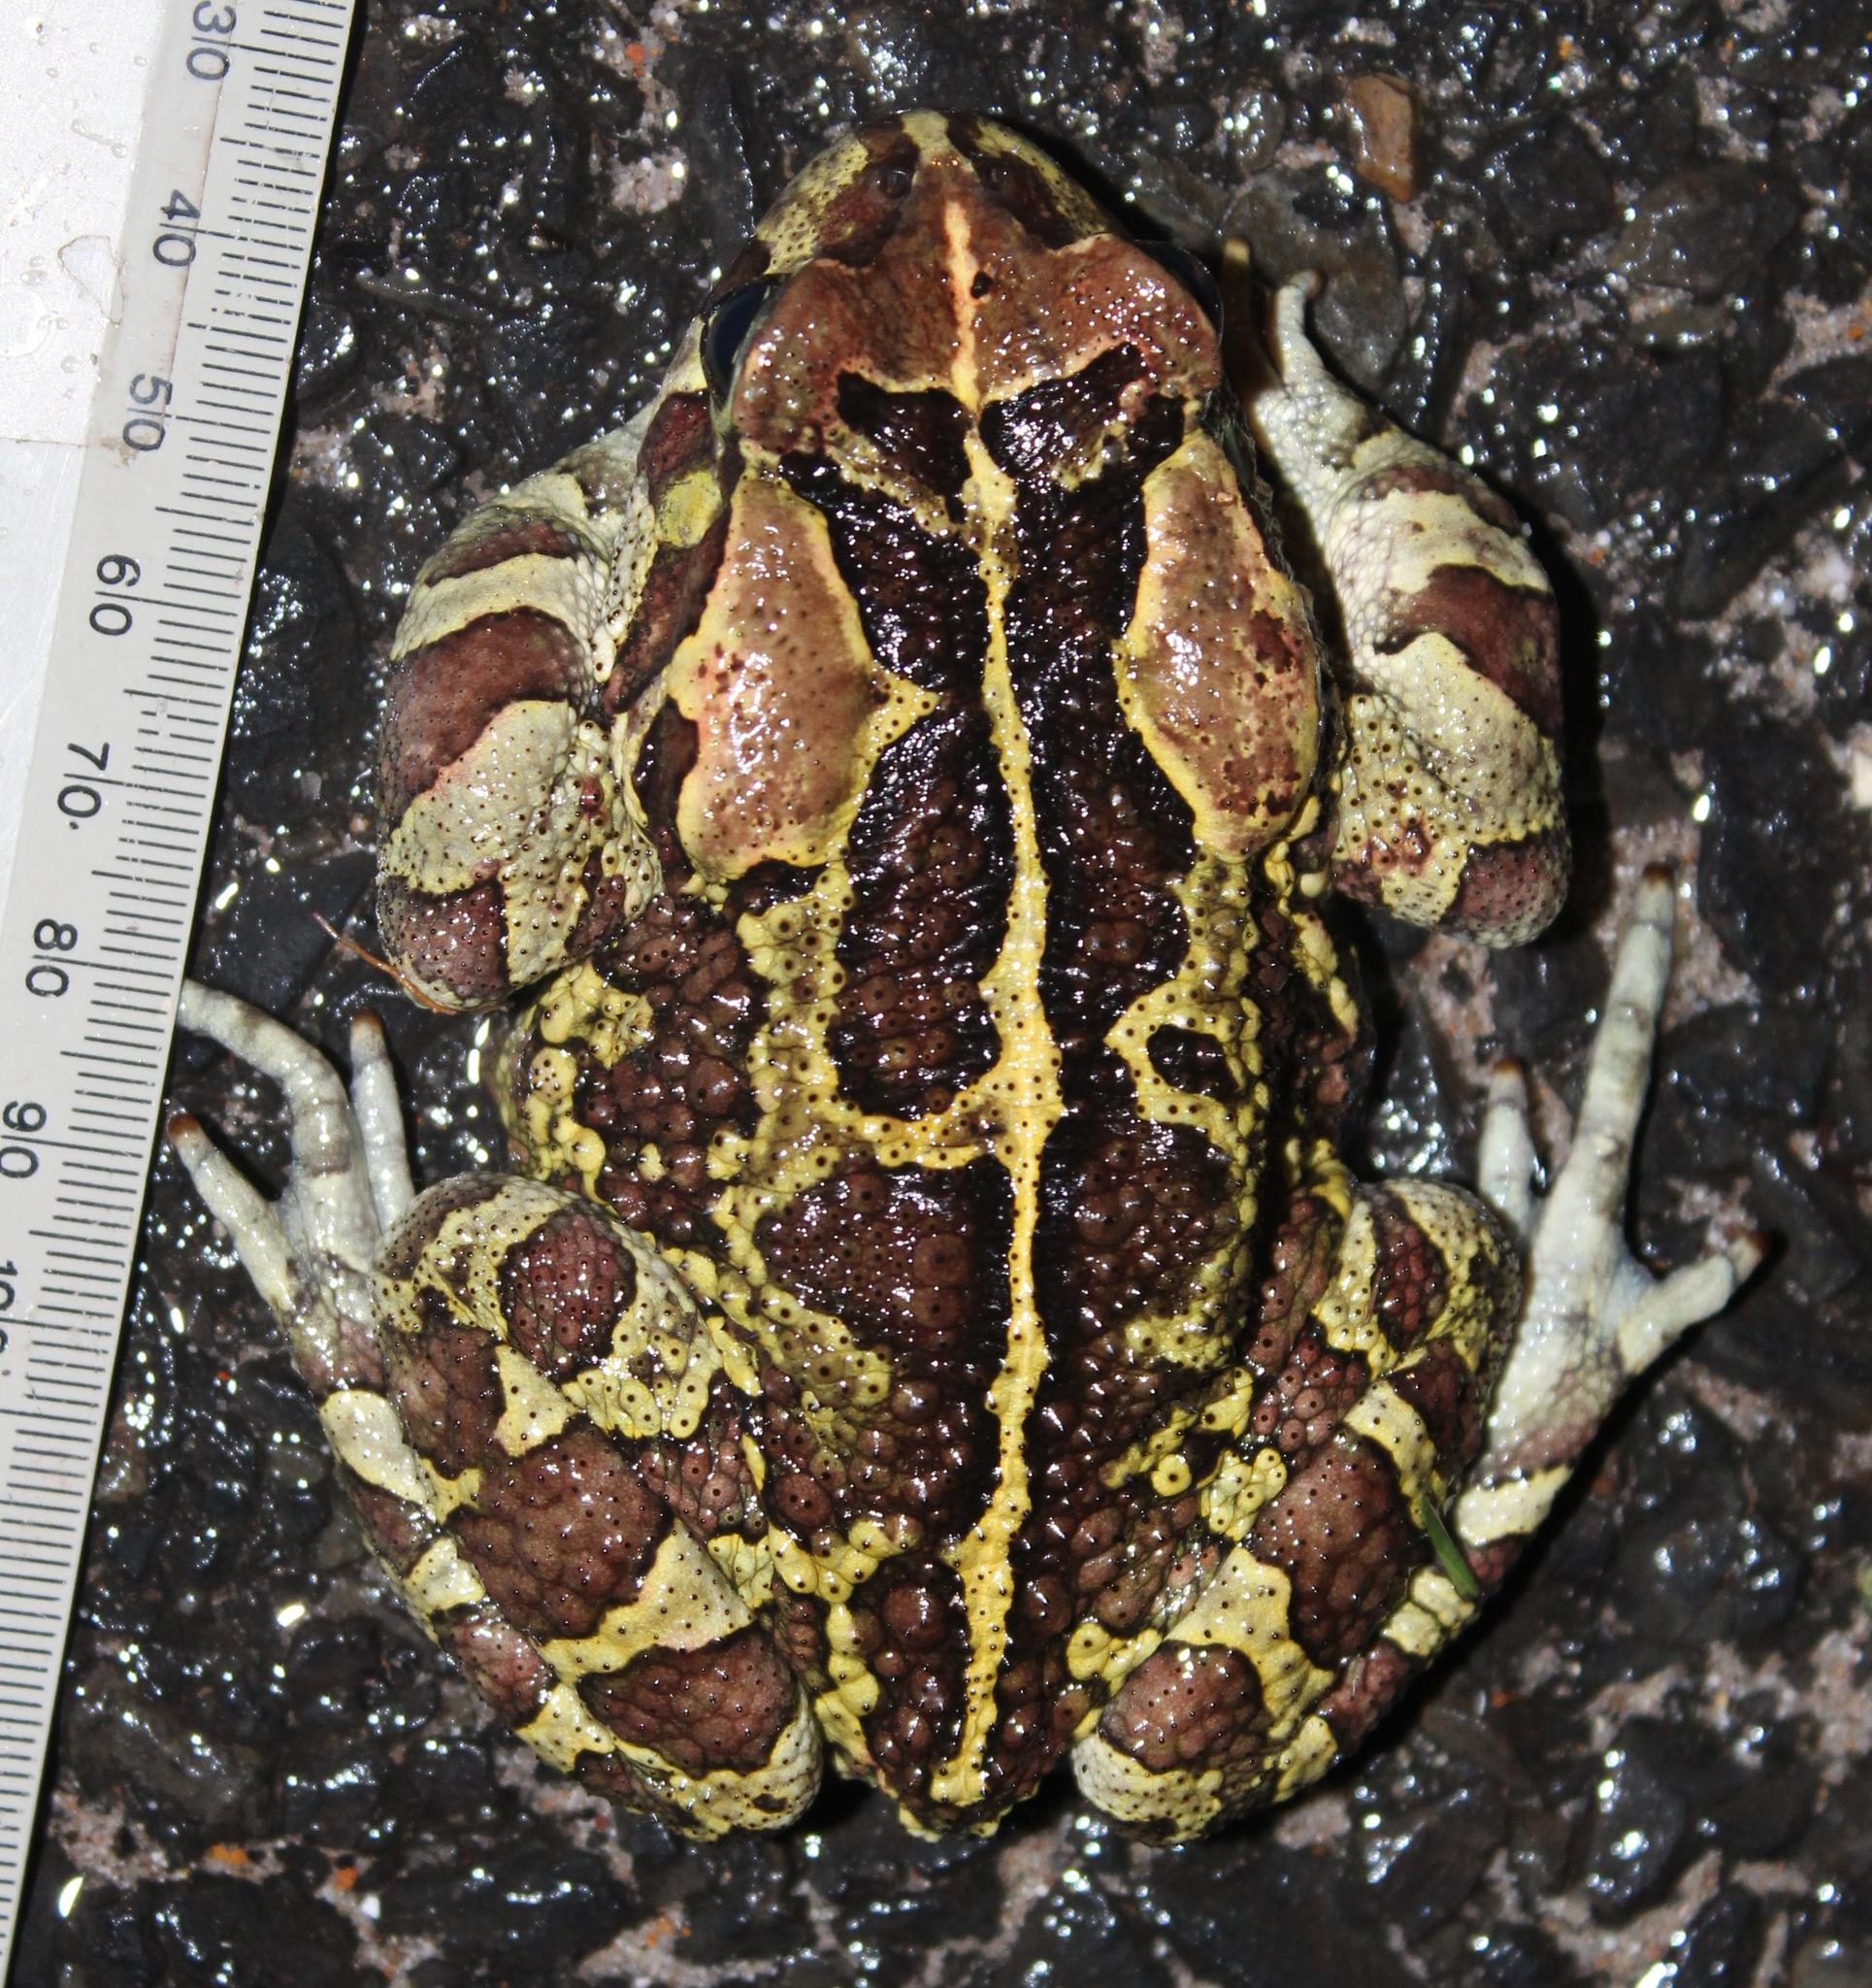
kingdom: Animalia
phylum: Chordata
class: Amphibia
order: Anura
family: Bufonidae
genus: Sclerophrys
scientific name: Sclerophrys pantherina
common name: Panther toad
